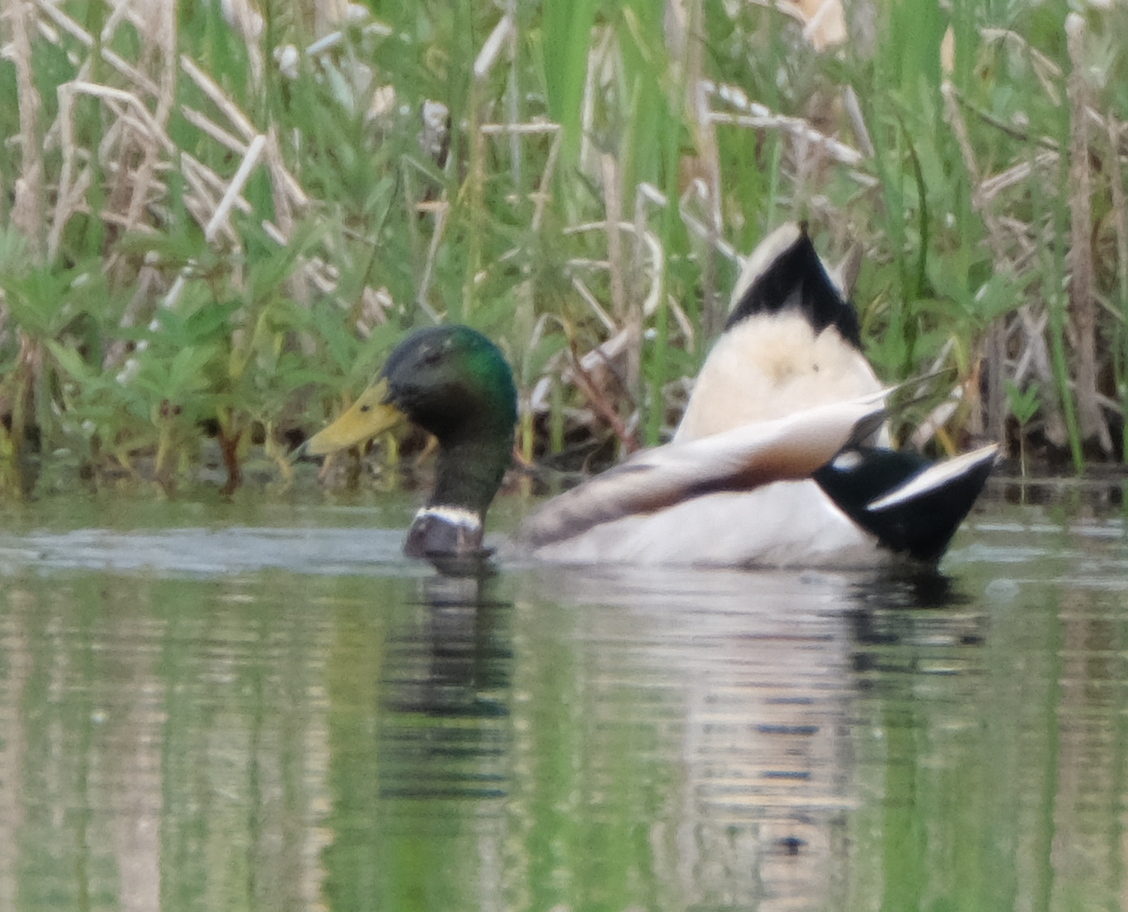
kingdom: Animalia
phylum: Chordata
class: Aves
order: Anseriformes
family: Anatidae
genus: Anas
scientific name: Anas platyrhynchos
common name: Mallard
